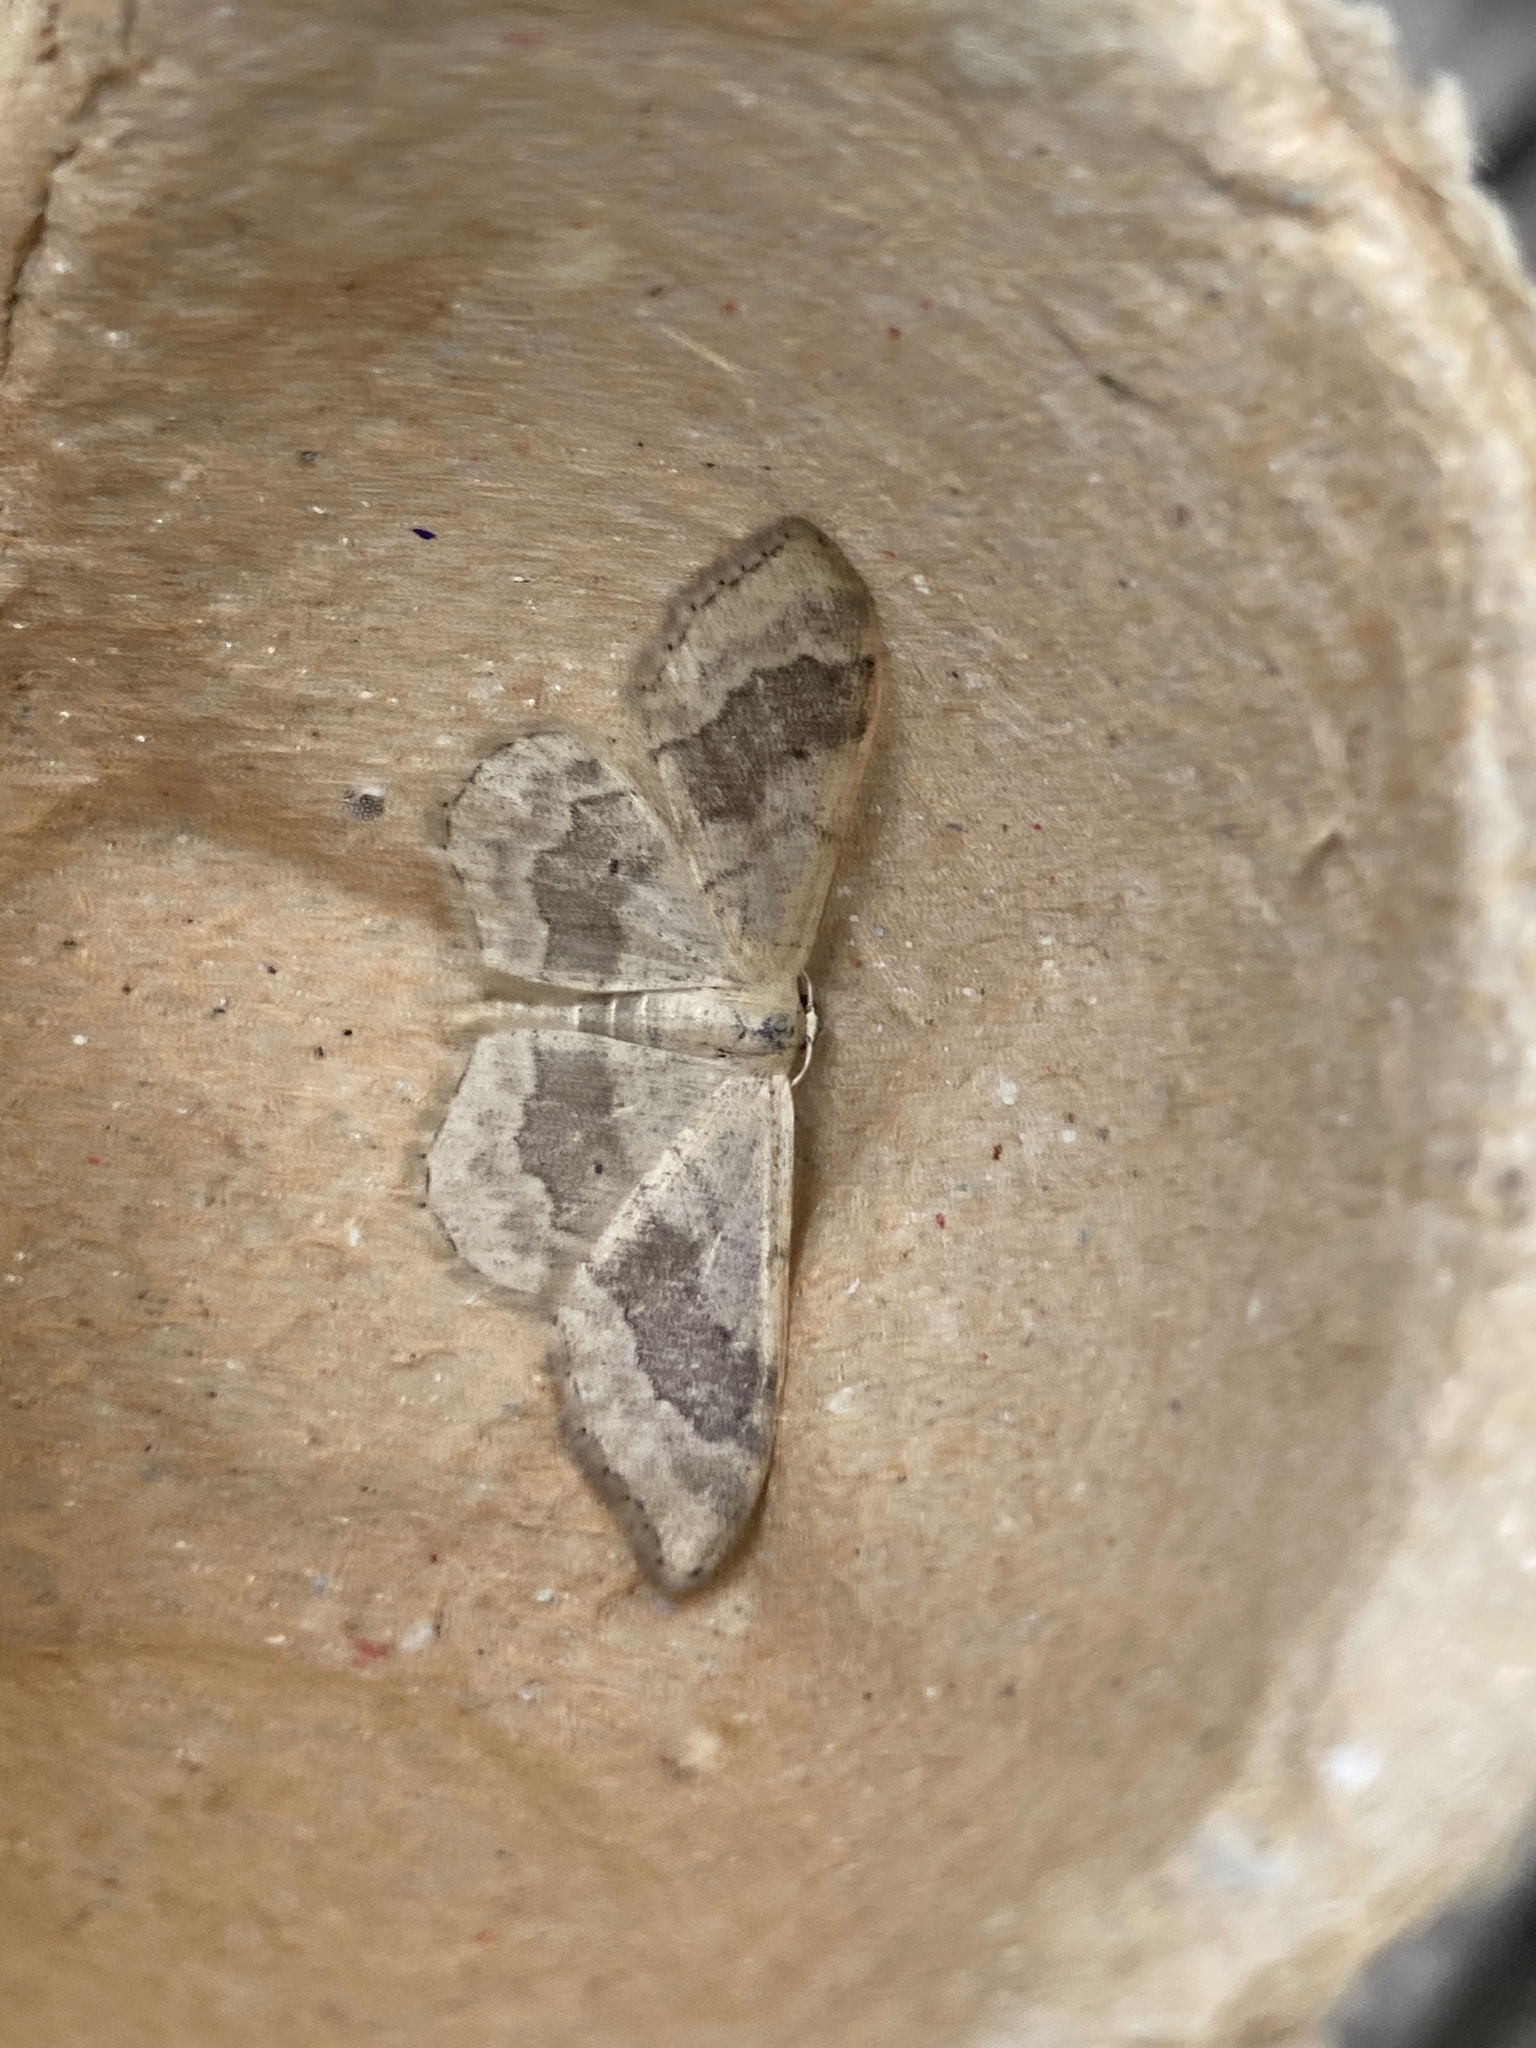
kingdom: Animalia
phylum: Arthropoda
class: Insecta
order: Lepidoptera
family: Geometridae
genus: Idaea
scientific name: Idaea aversata
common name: Riband wave
